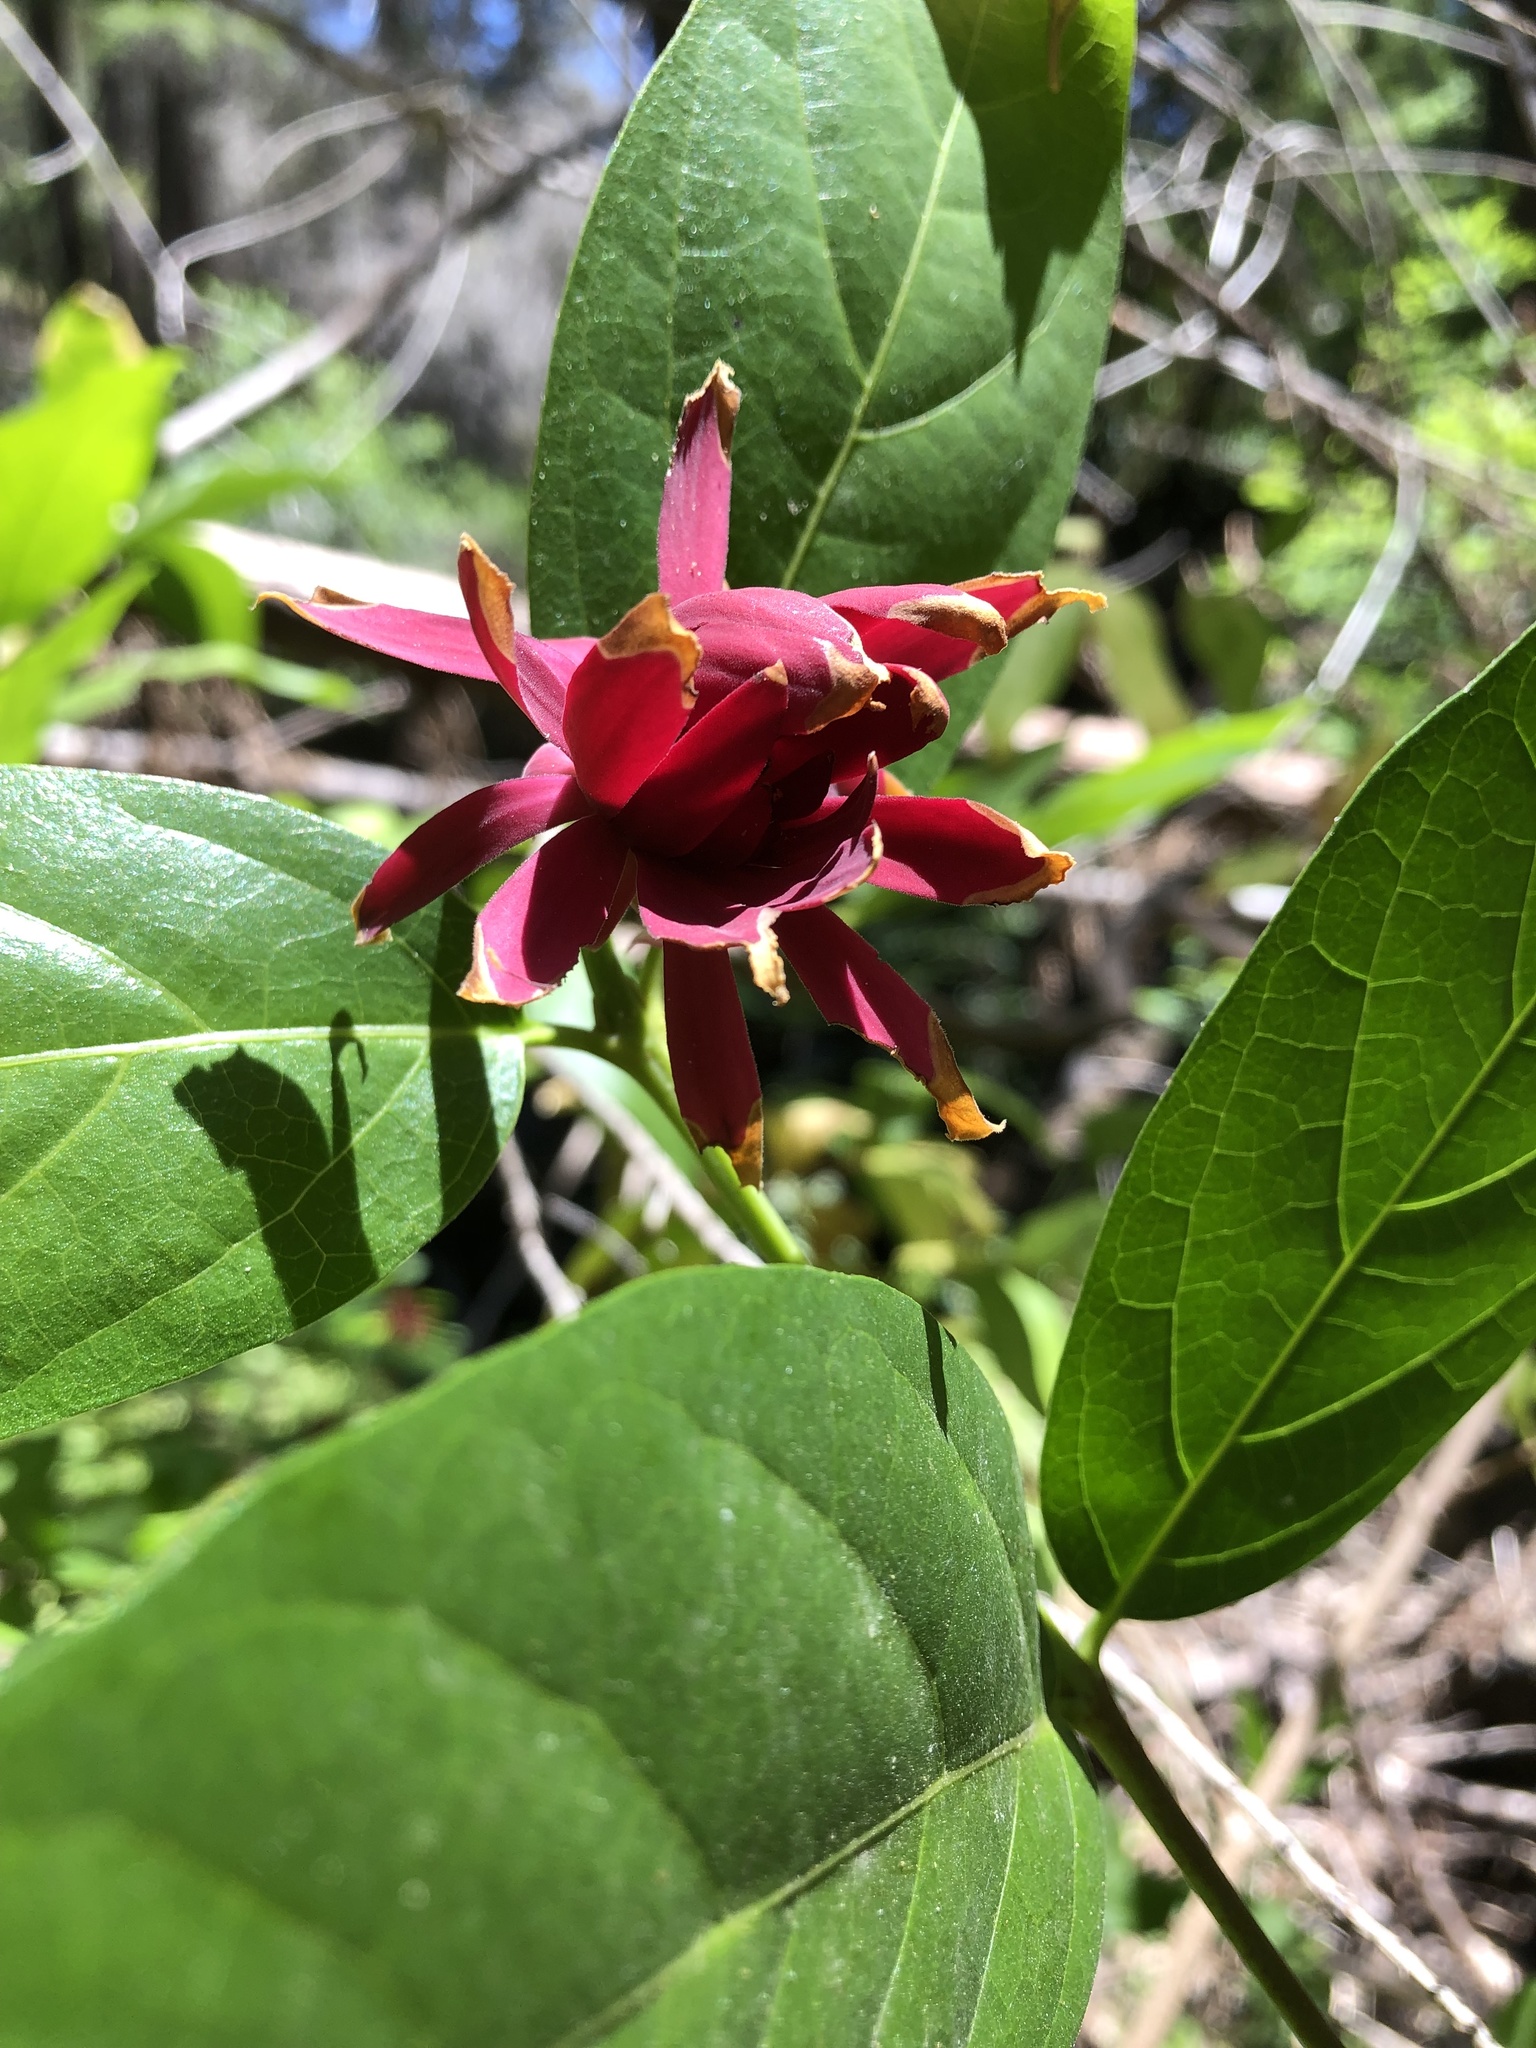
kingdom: Plantae
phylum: Tracheophyta
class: Magnoliopsida
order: Laurales
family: Calycanthaceae
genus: Calycanthus
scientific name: Calycanthus occidentalis
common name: California spicebush
